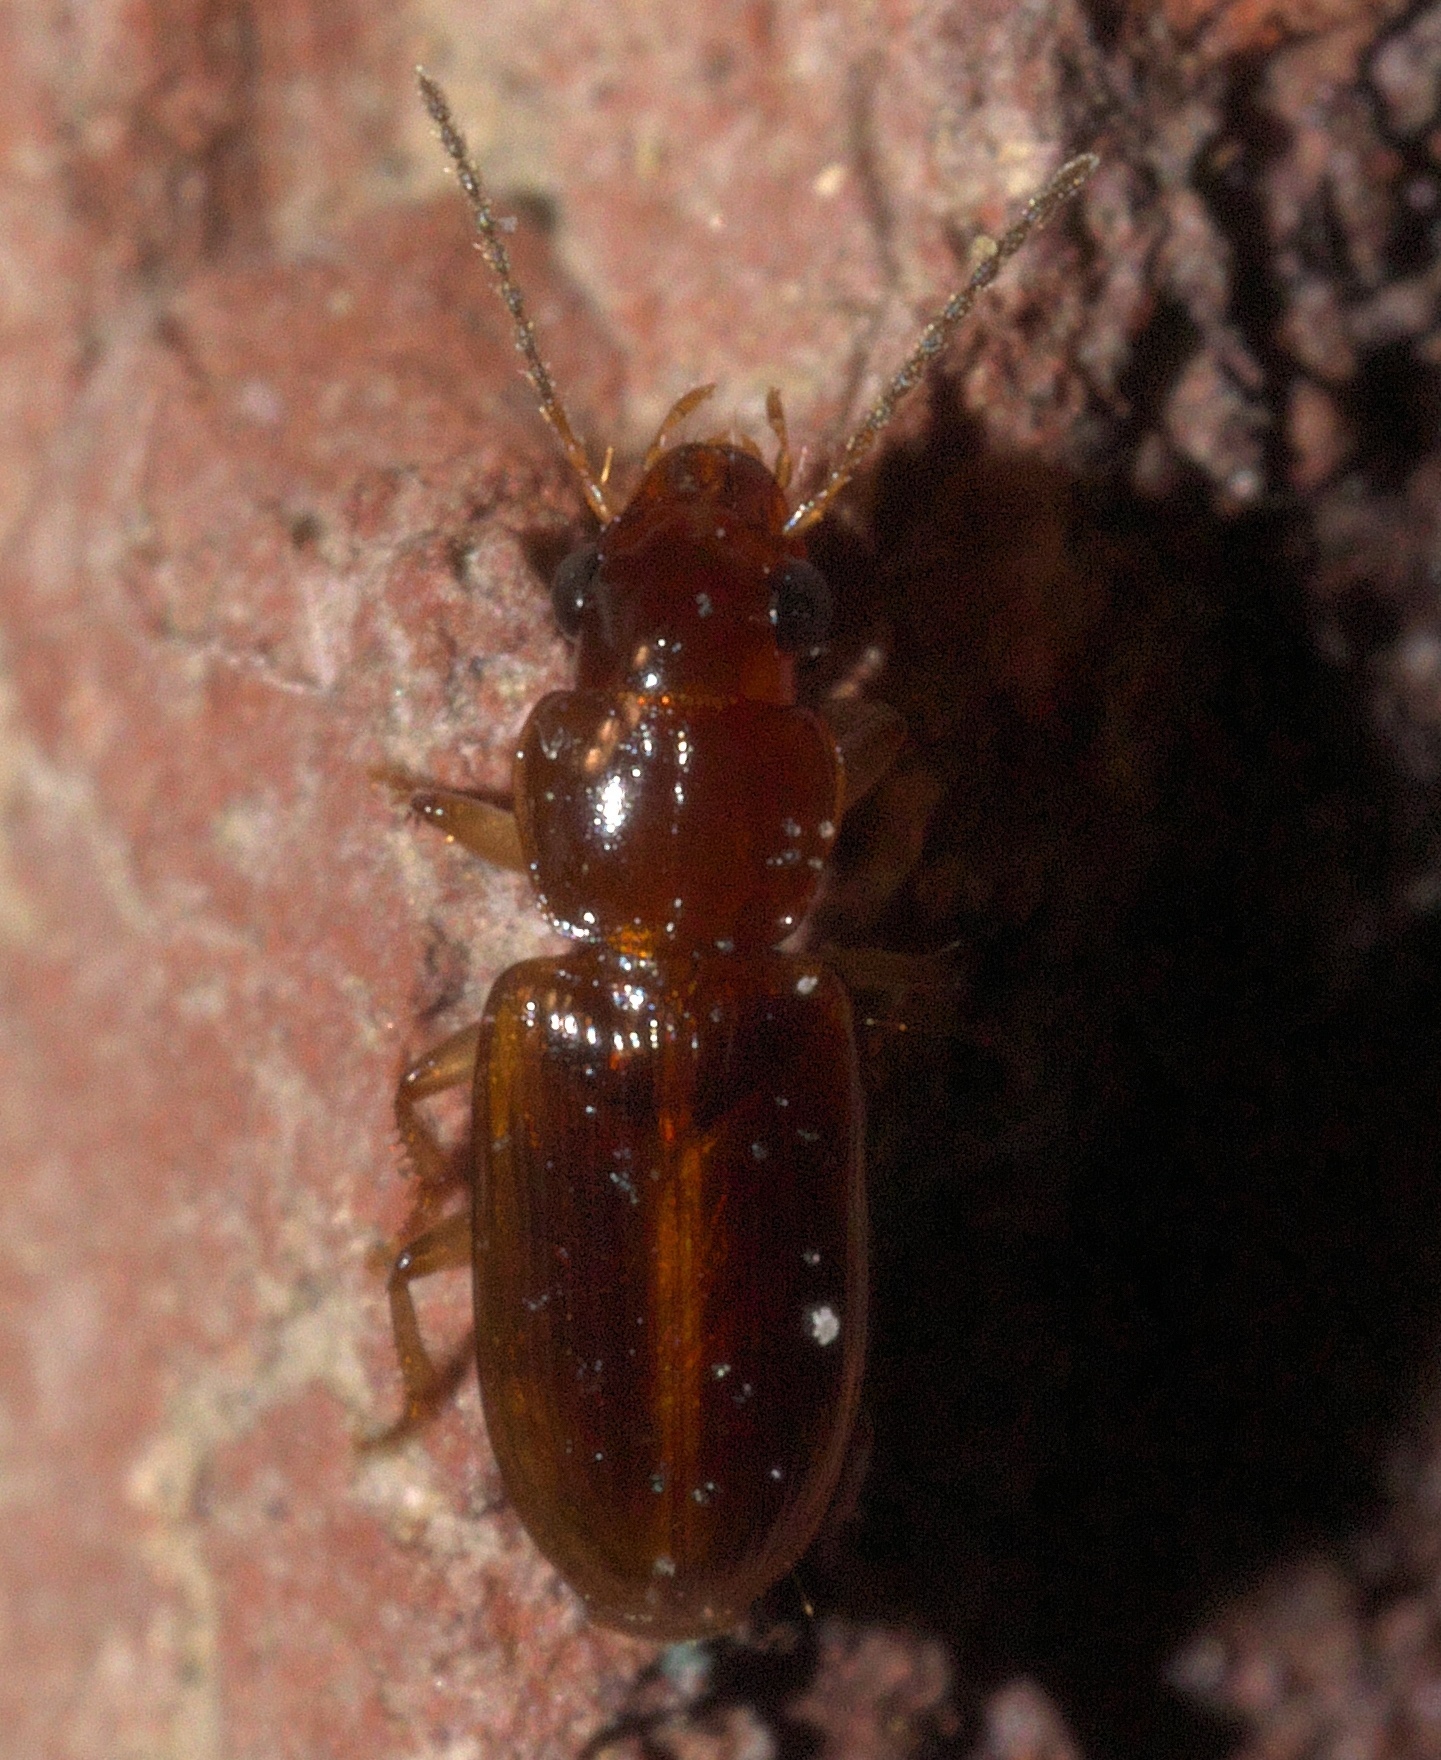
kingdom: Animalia
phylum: Arthropoda
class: Insecta
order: Coleoptera
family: Carabidae
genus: Acupalpus
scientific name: Acupalpus indistinctus
